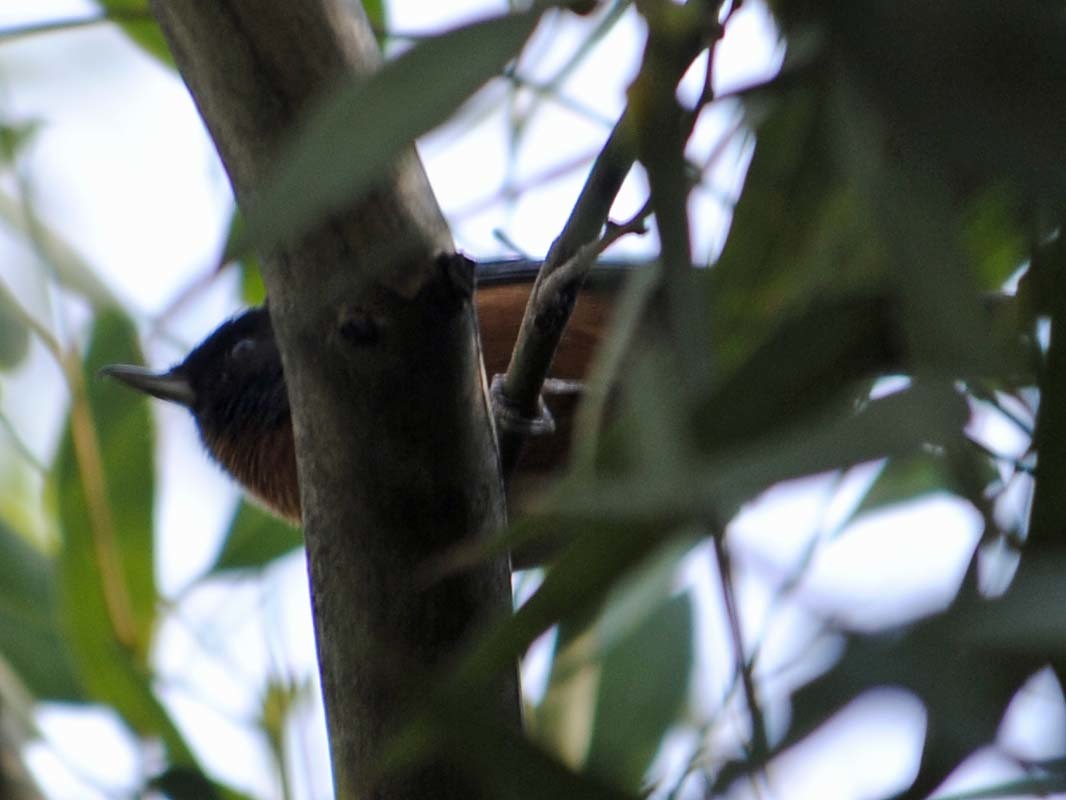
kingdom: Animalia
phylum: Chordata
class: Aves
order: Passeriformes
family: Thraupidae
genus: Diglossa
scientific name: Diglossa baritula
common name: Cinnamon-bellied flowerpiercer
